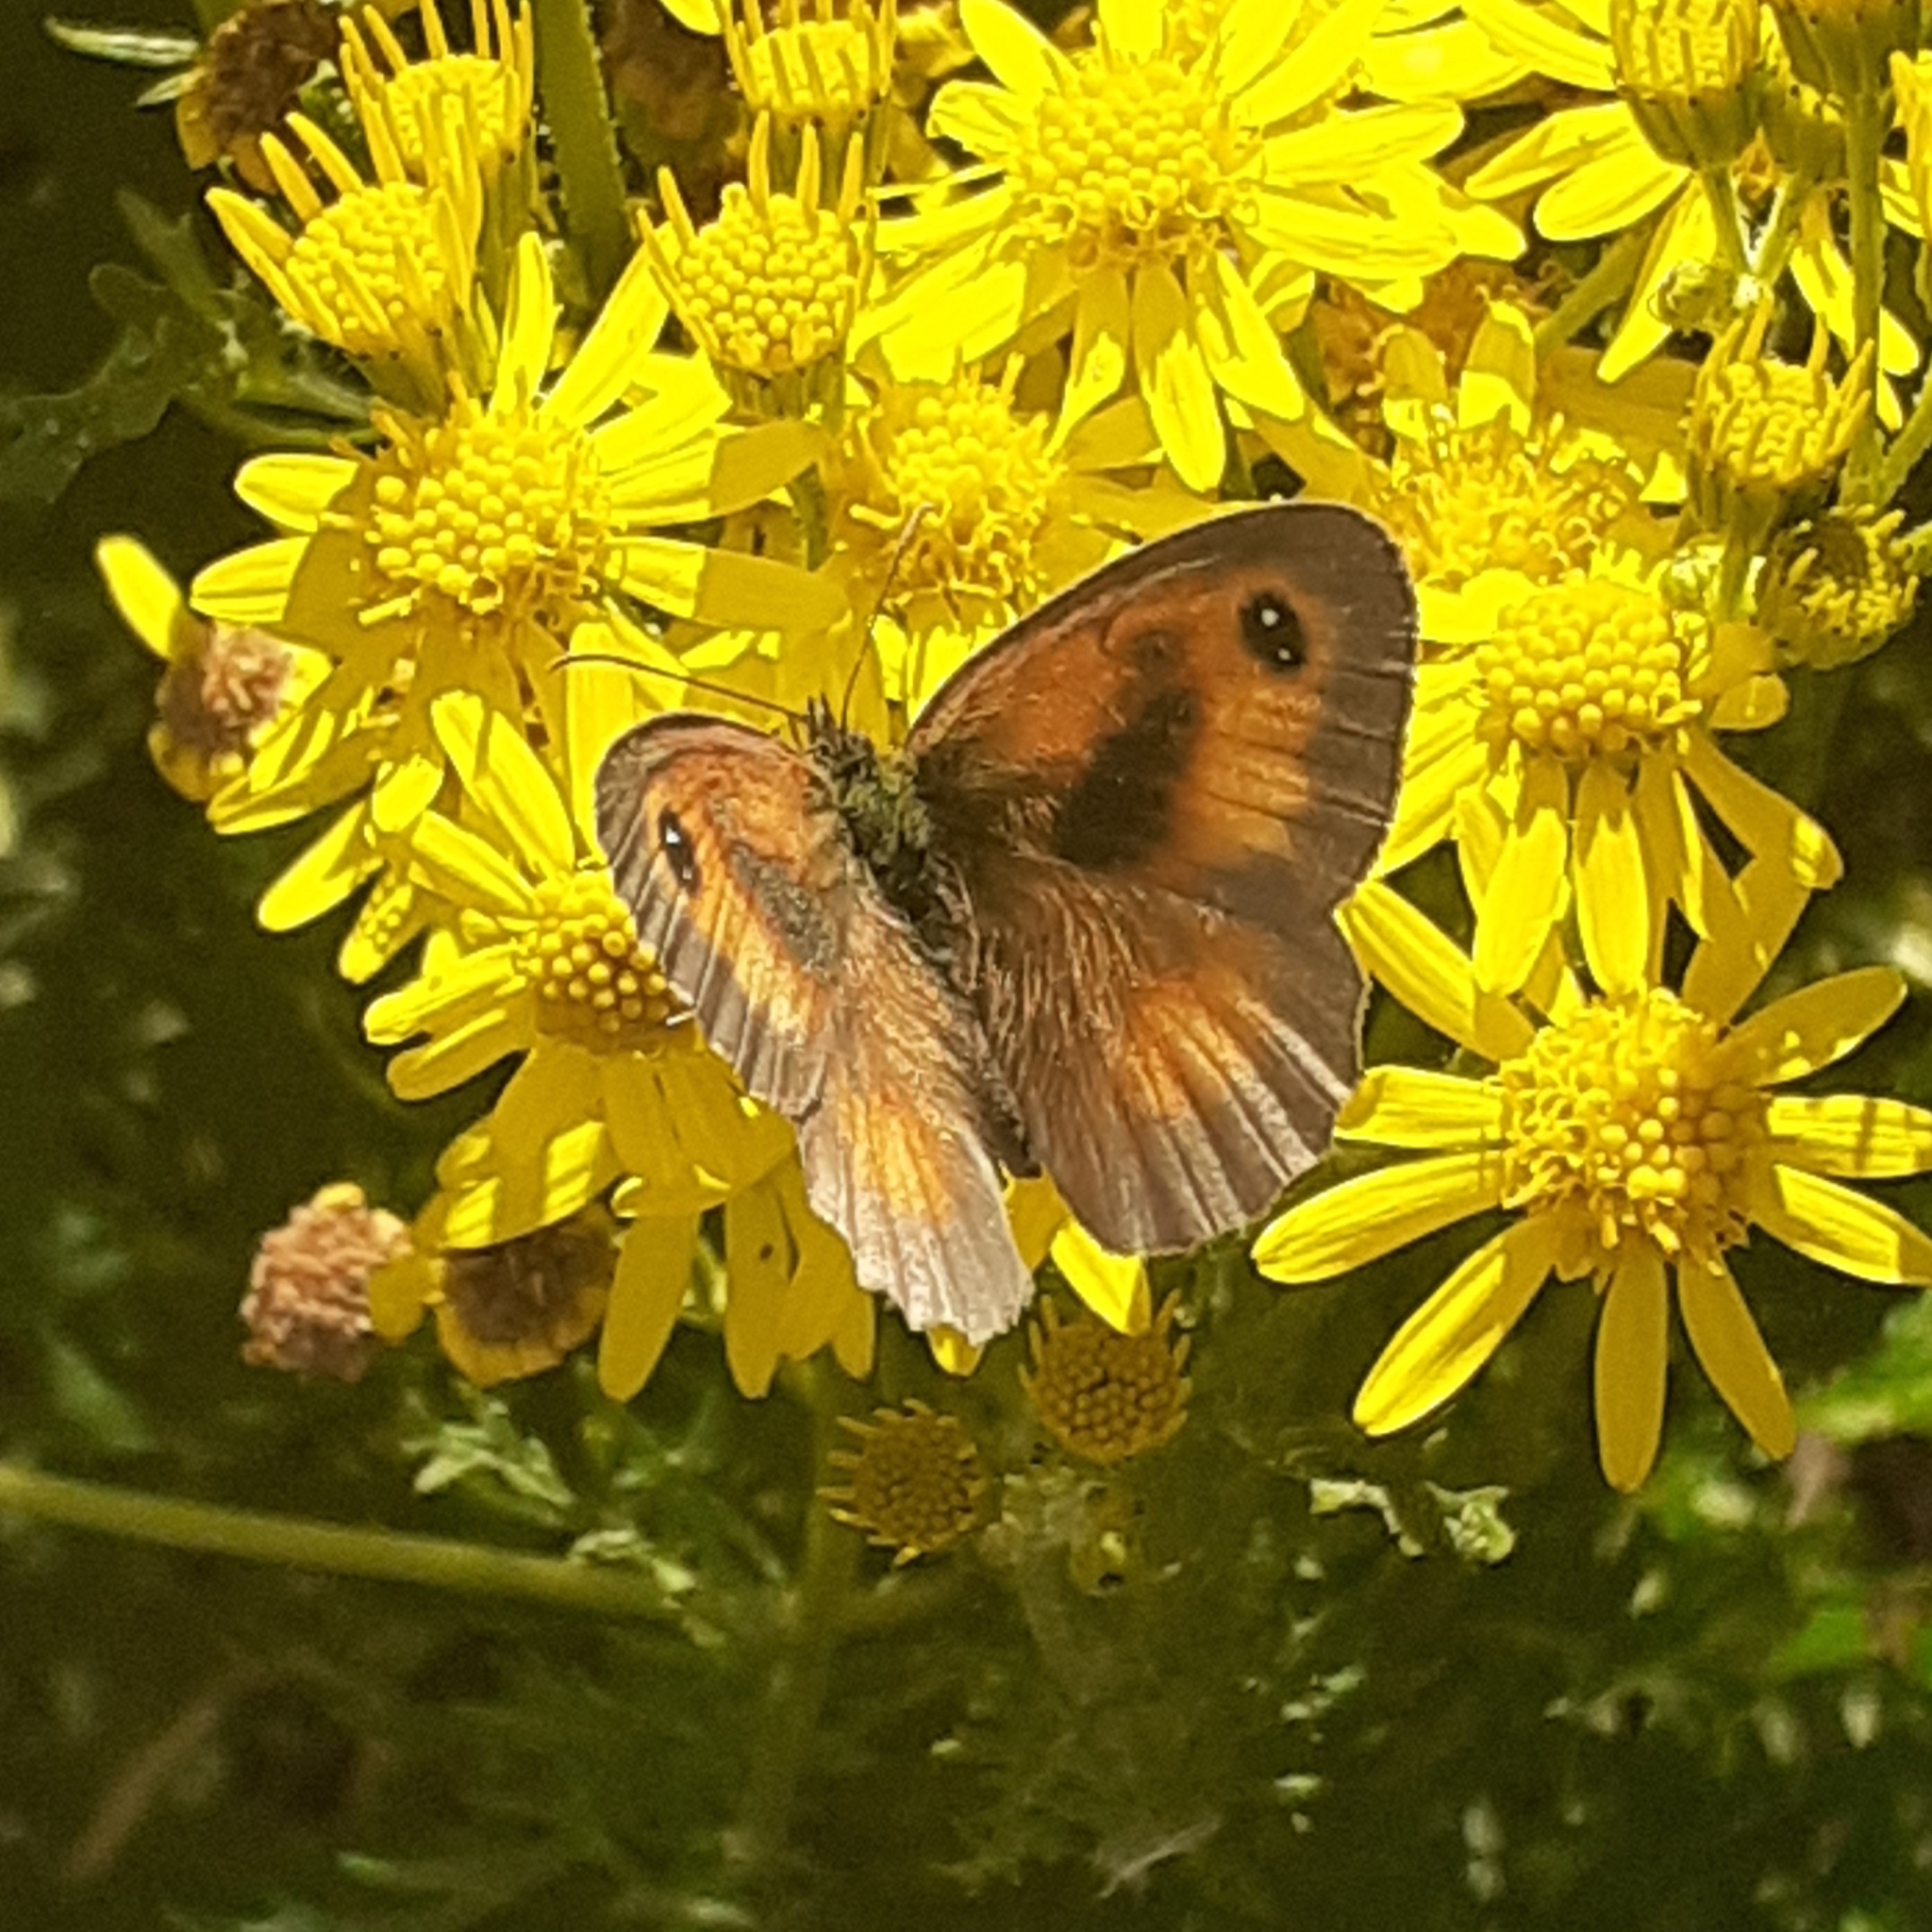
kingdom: Animalia
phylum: Arthropoda
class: Insecta
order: Lepidoptera
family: Nymphalidae
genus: Pyronia
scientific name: Pyronia tithonus
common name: Gatekeeper
